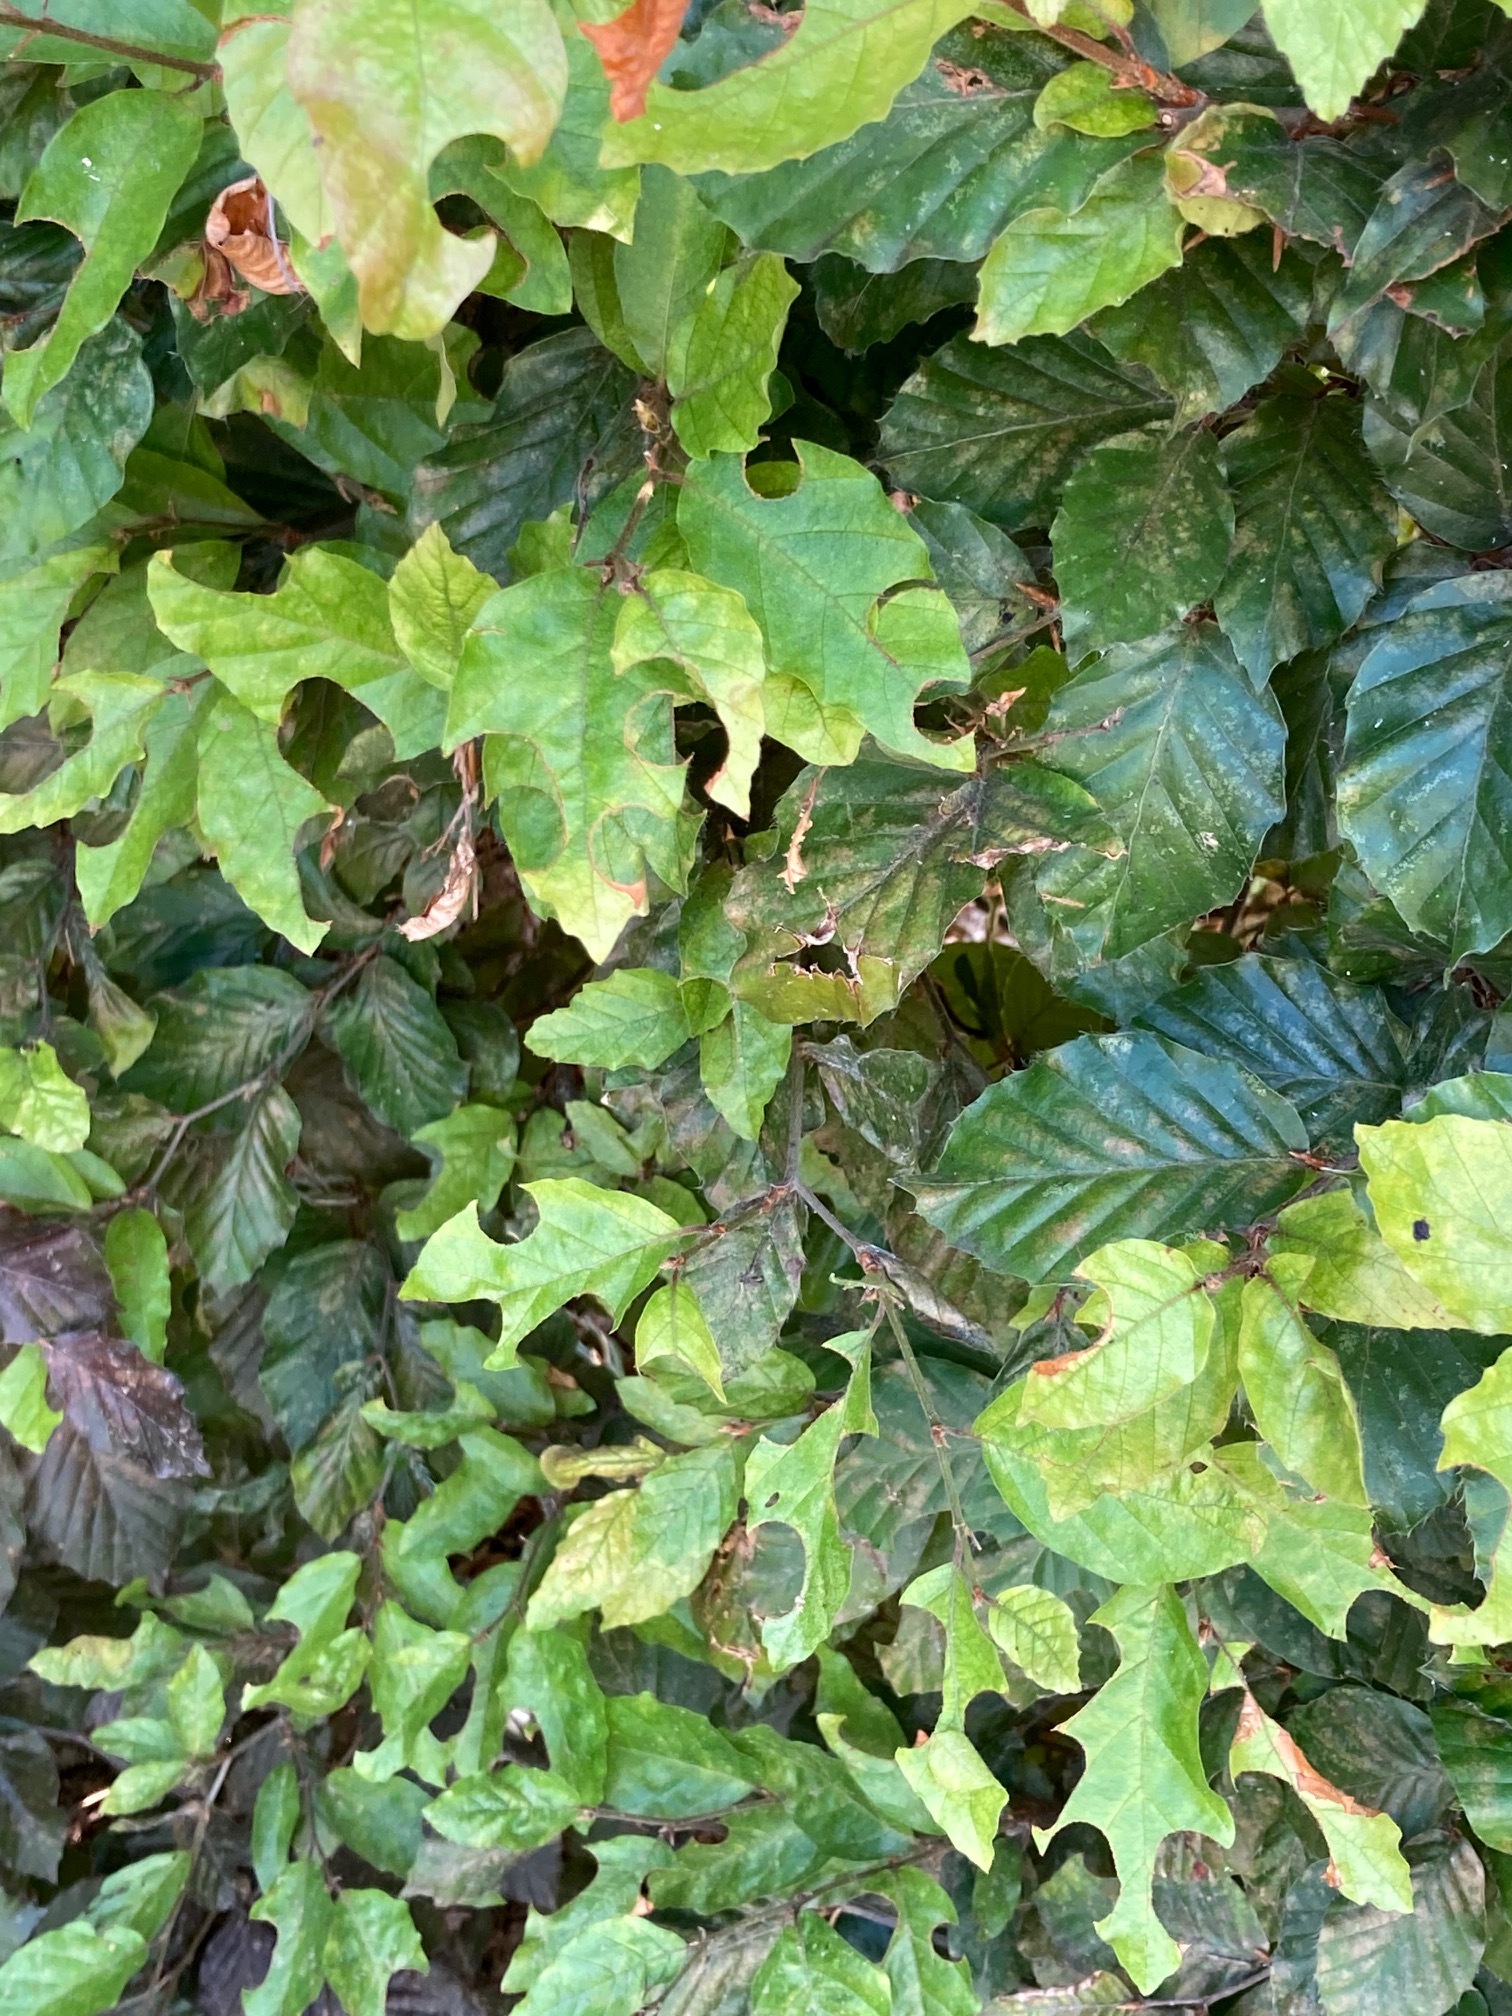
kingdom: Animalia
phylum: Arthropoda
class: Insecta
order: Hymenoptera
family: Vespidae
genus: Vespa
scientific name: Vespa crabro
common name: Hornet
